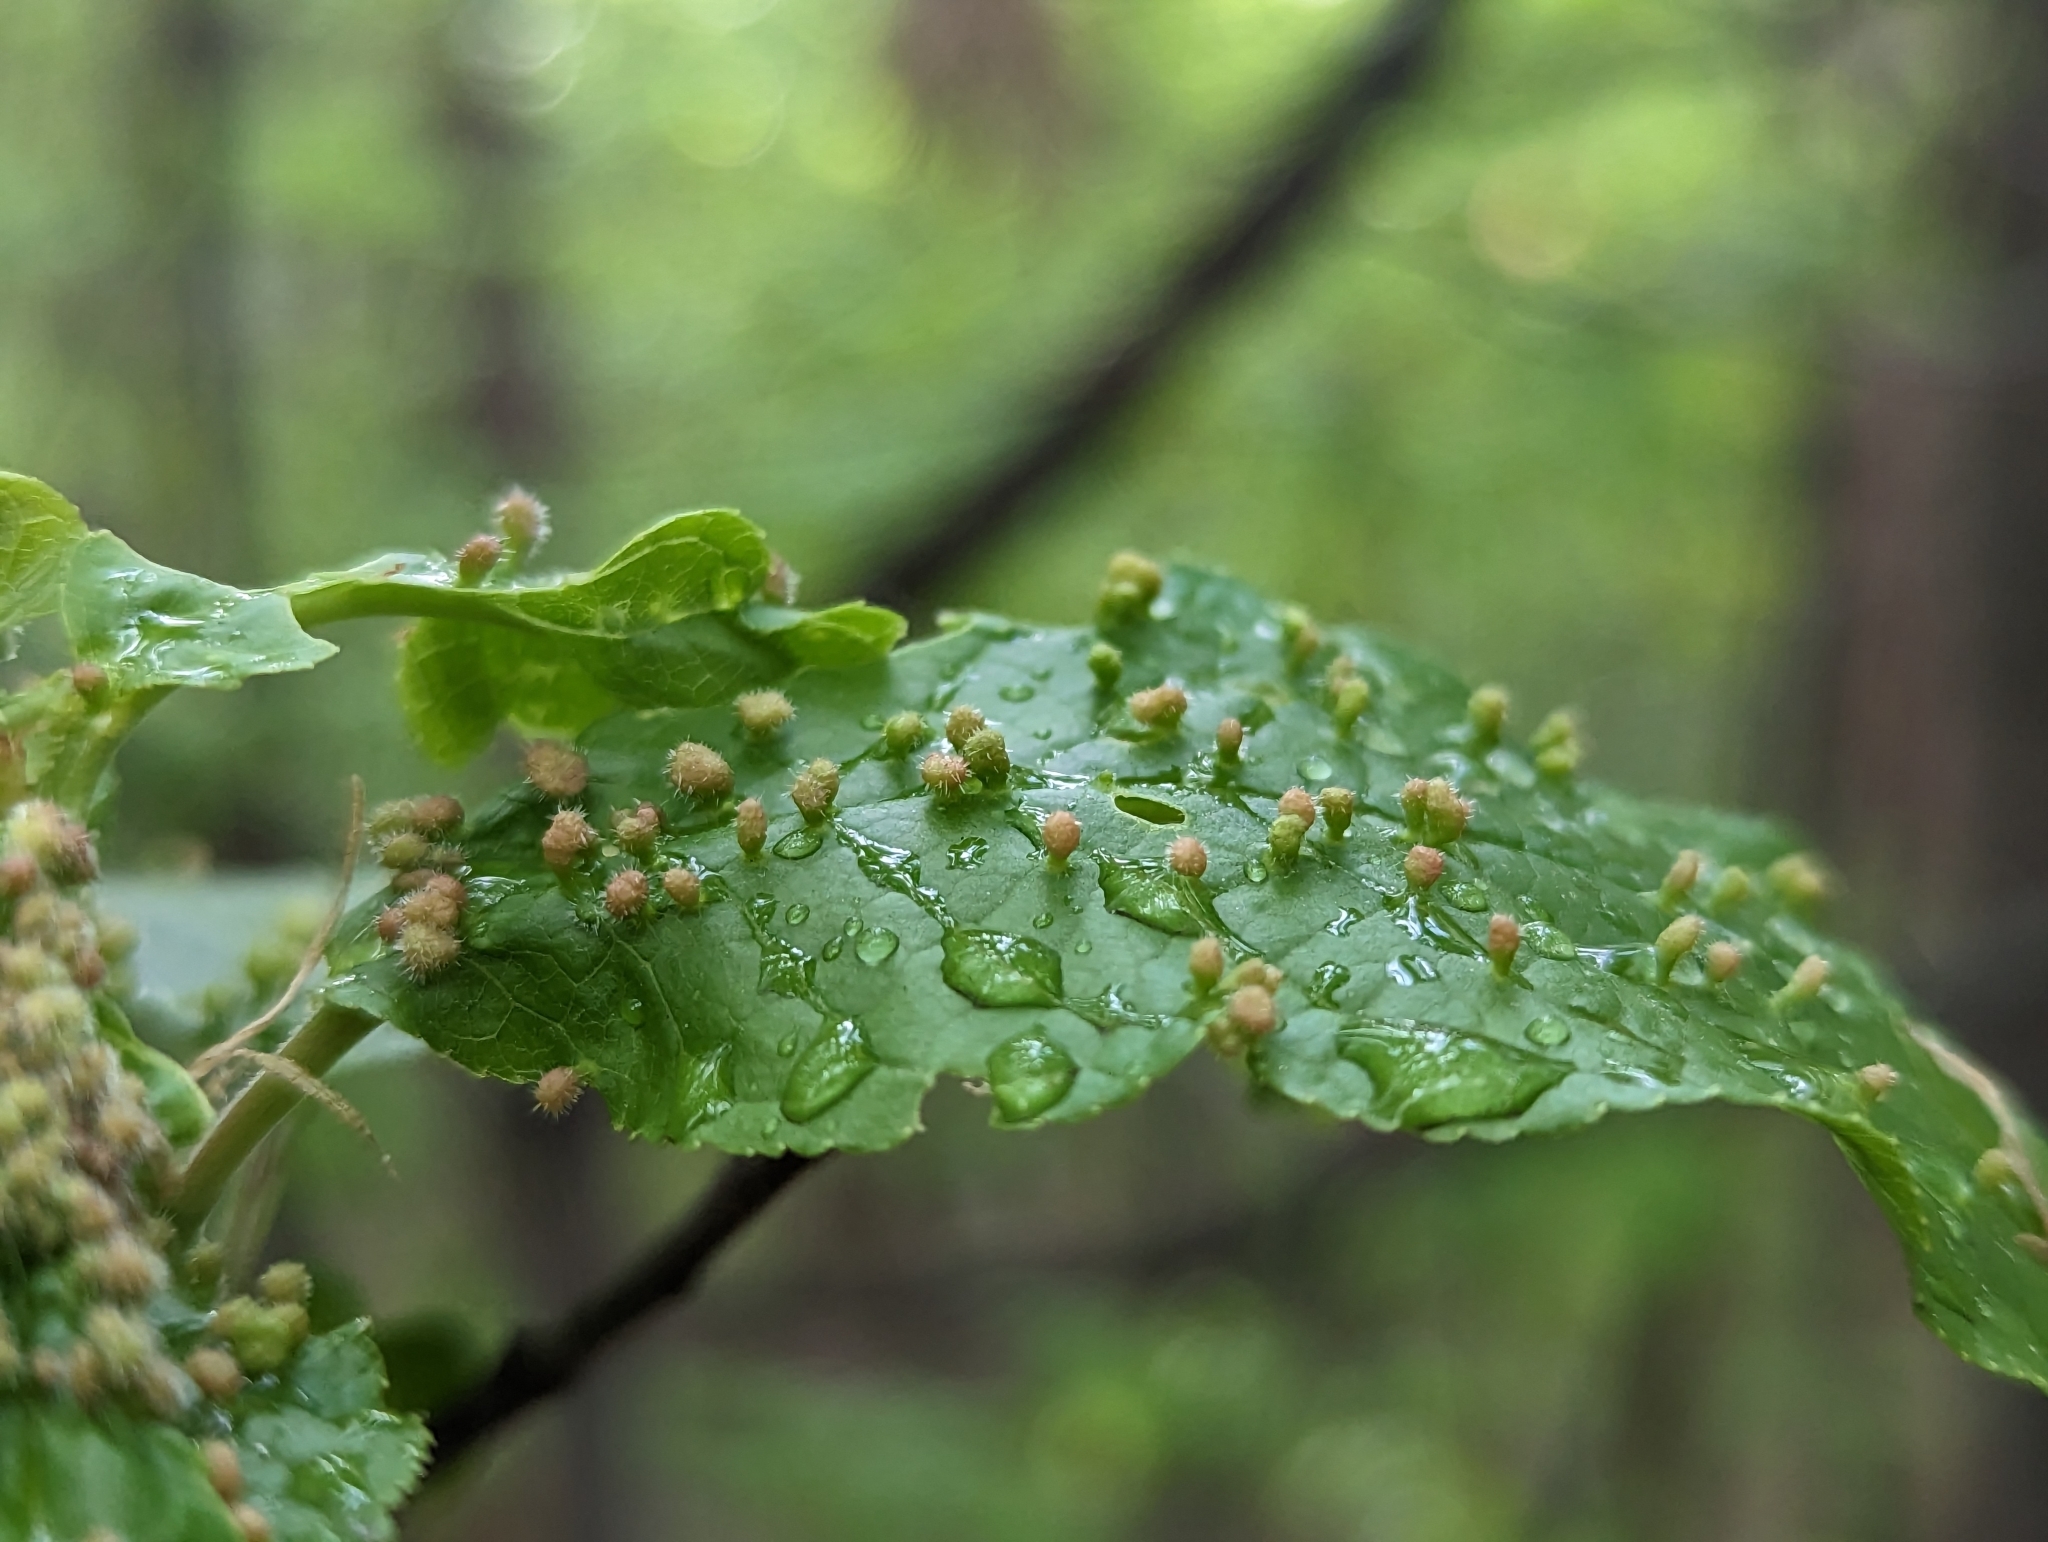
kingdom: Animalia
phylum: Arthropoda
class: Arachnida
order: Trombidiformes
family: Eriophyidae
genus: Phyllocoptes
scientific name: Phyllocoptes eupadi
